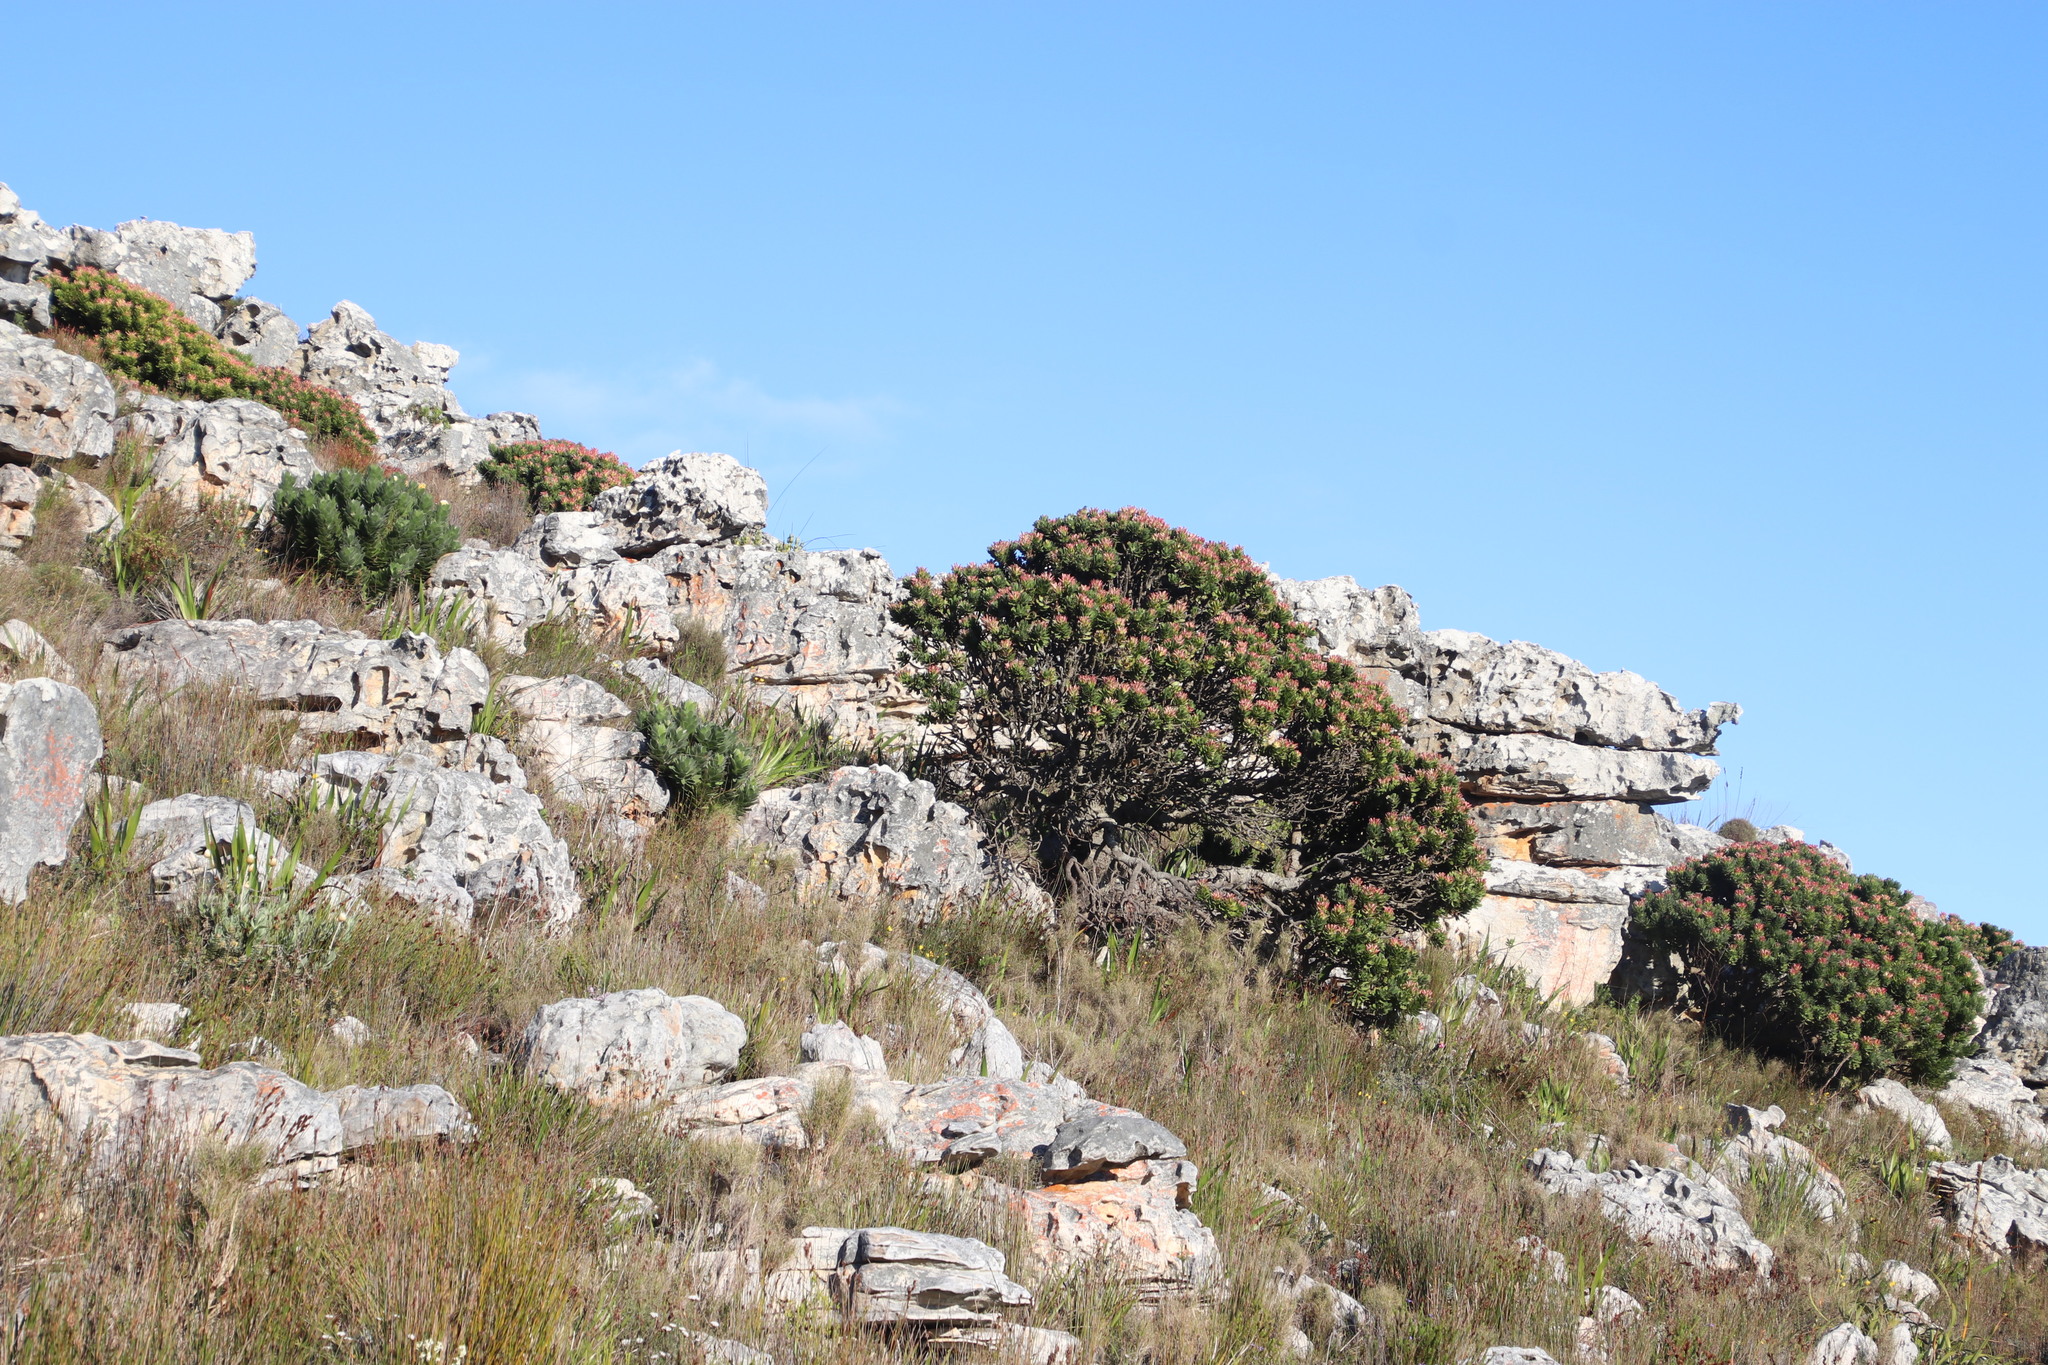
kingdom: Plantae
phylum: Tracheophyta
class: Magnoliopsida
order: Proteales
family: Proteaceae
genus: Mimetes
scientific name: Mimetes fimbriifolius
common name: Fringed bottlebrush
